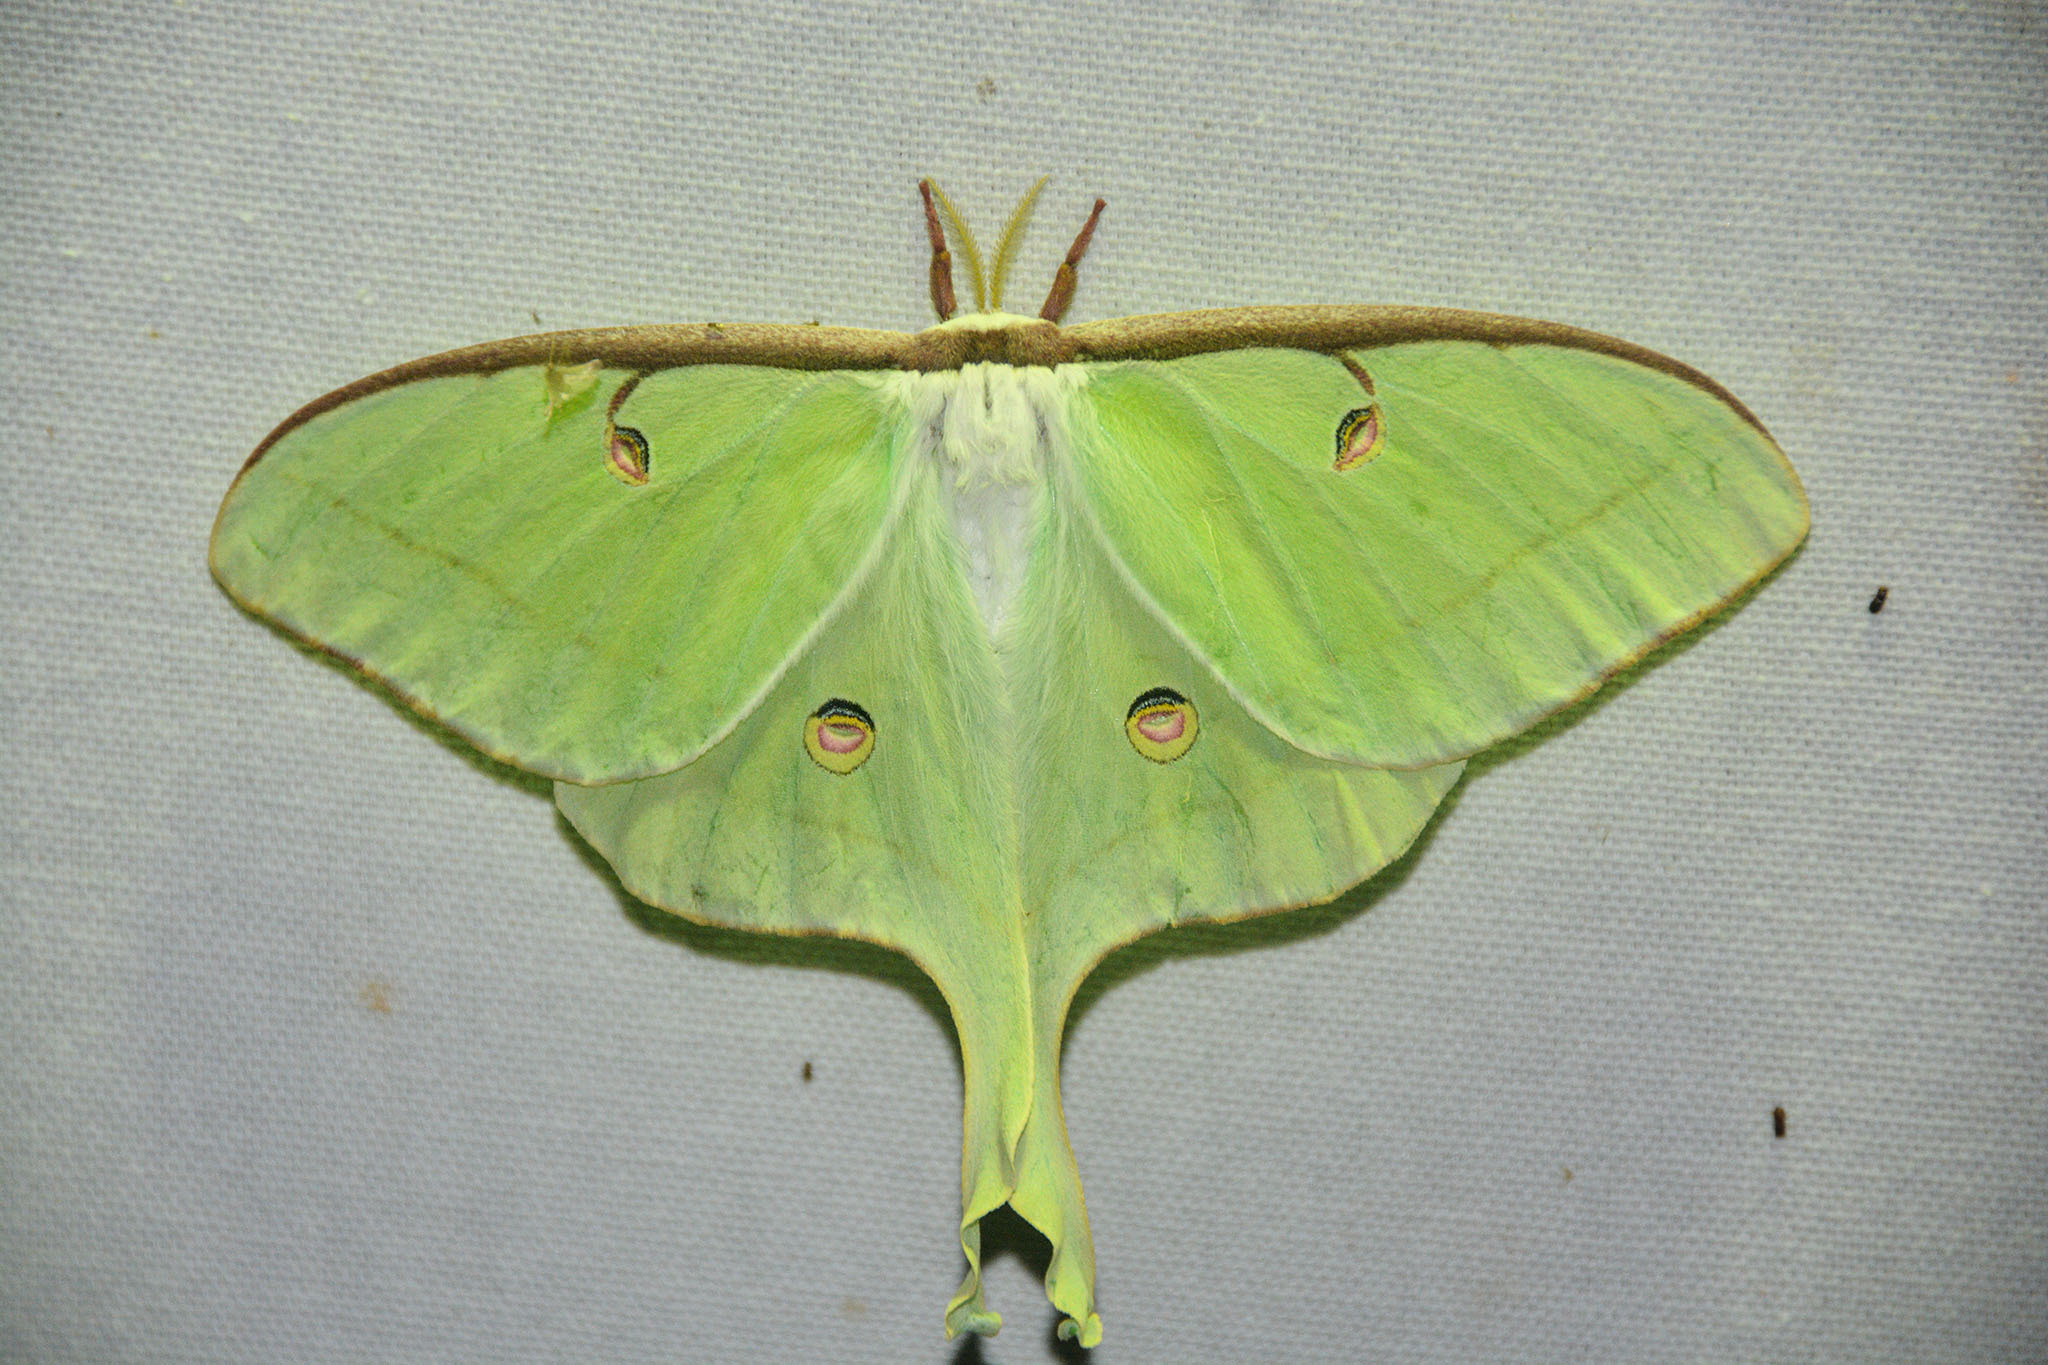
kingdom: Animalia
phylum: Arthropoda
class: Insecta
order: Lepidoptera
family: Saturniidae
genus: Actias
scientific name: Actias luna
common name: Luna moth
